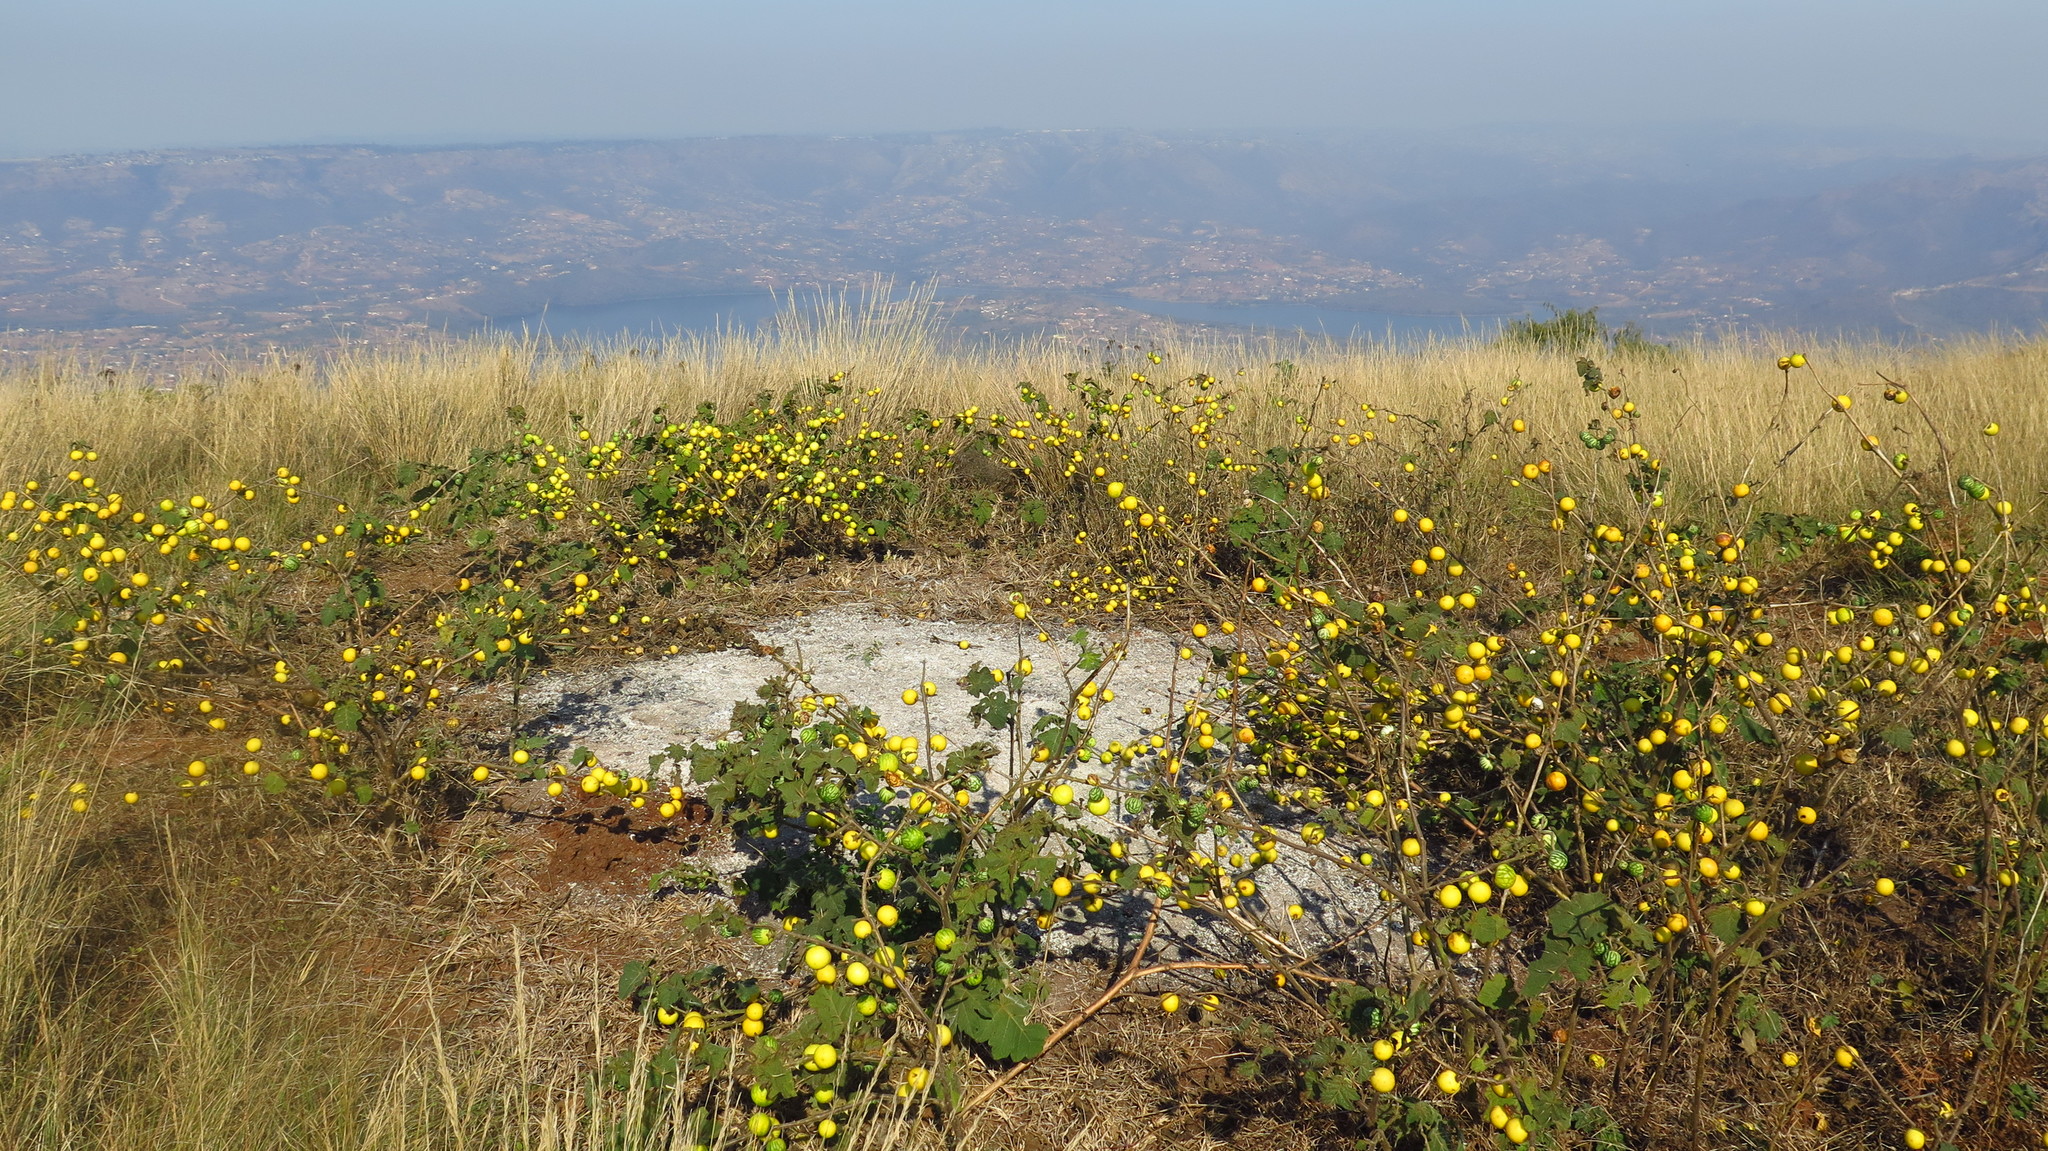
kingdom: Plantae
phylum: Tracheophyta
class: Magnoliopsida
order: Solanales
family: Solanaceae
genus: Solanum
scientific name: Solanum viarum
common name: Tropical soda apple
